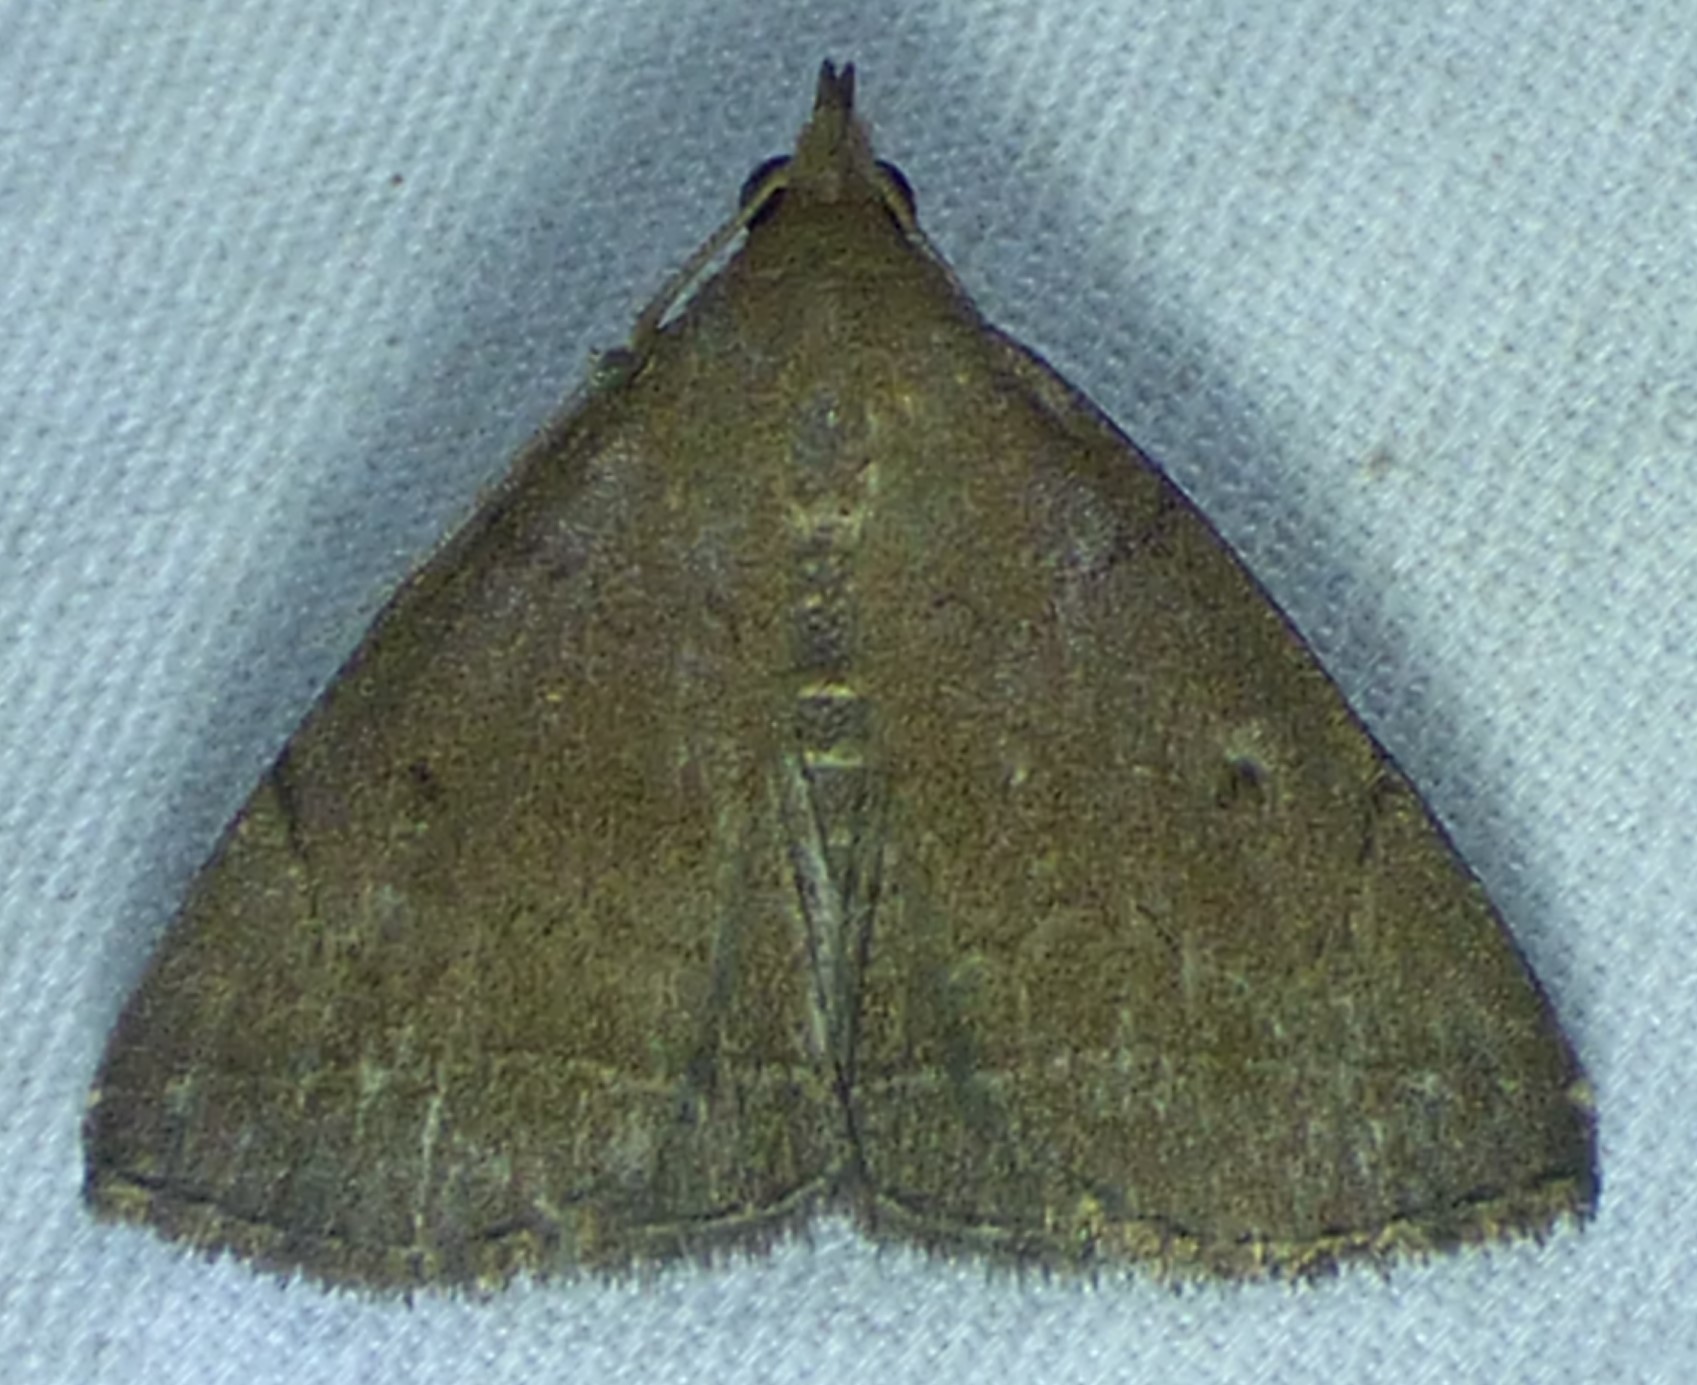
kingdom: Animalia
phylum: Arthropoda
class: Insecta
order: Lepidoptera
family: Erebidae
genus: Zanclognatha
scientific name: Zanclognatha protumnusalis
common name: Complex fan-foot
